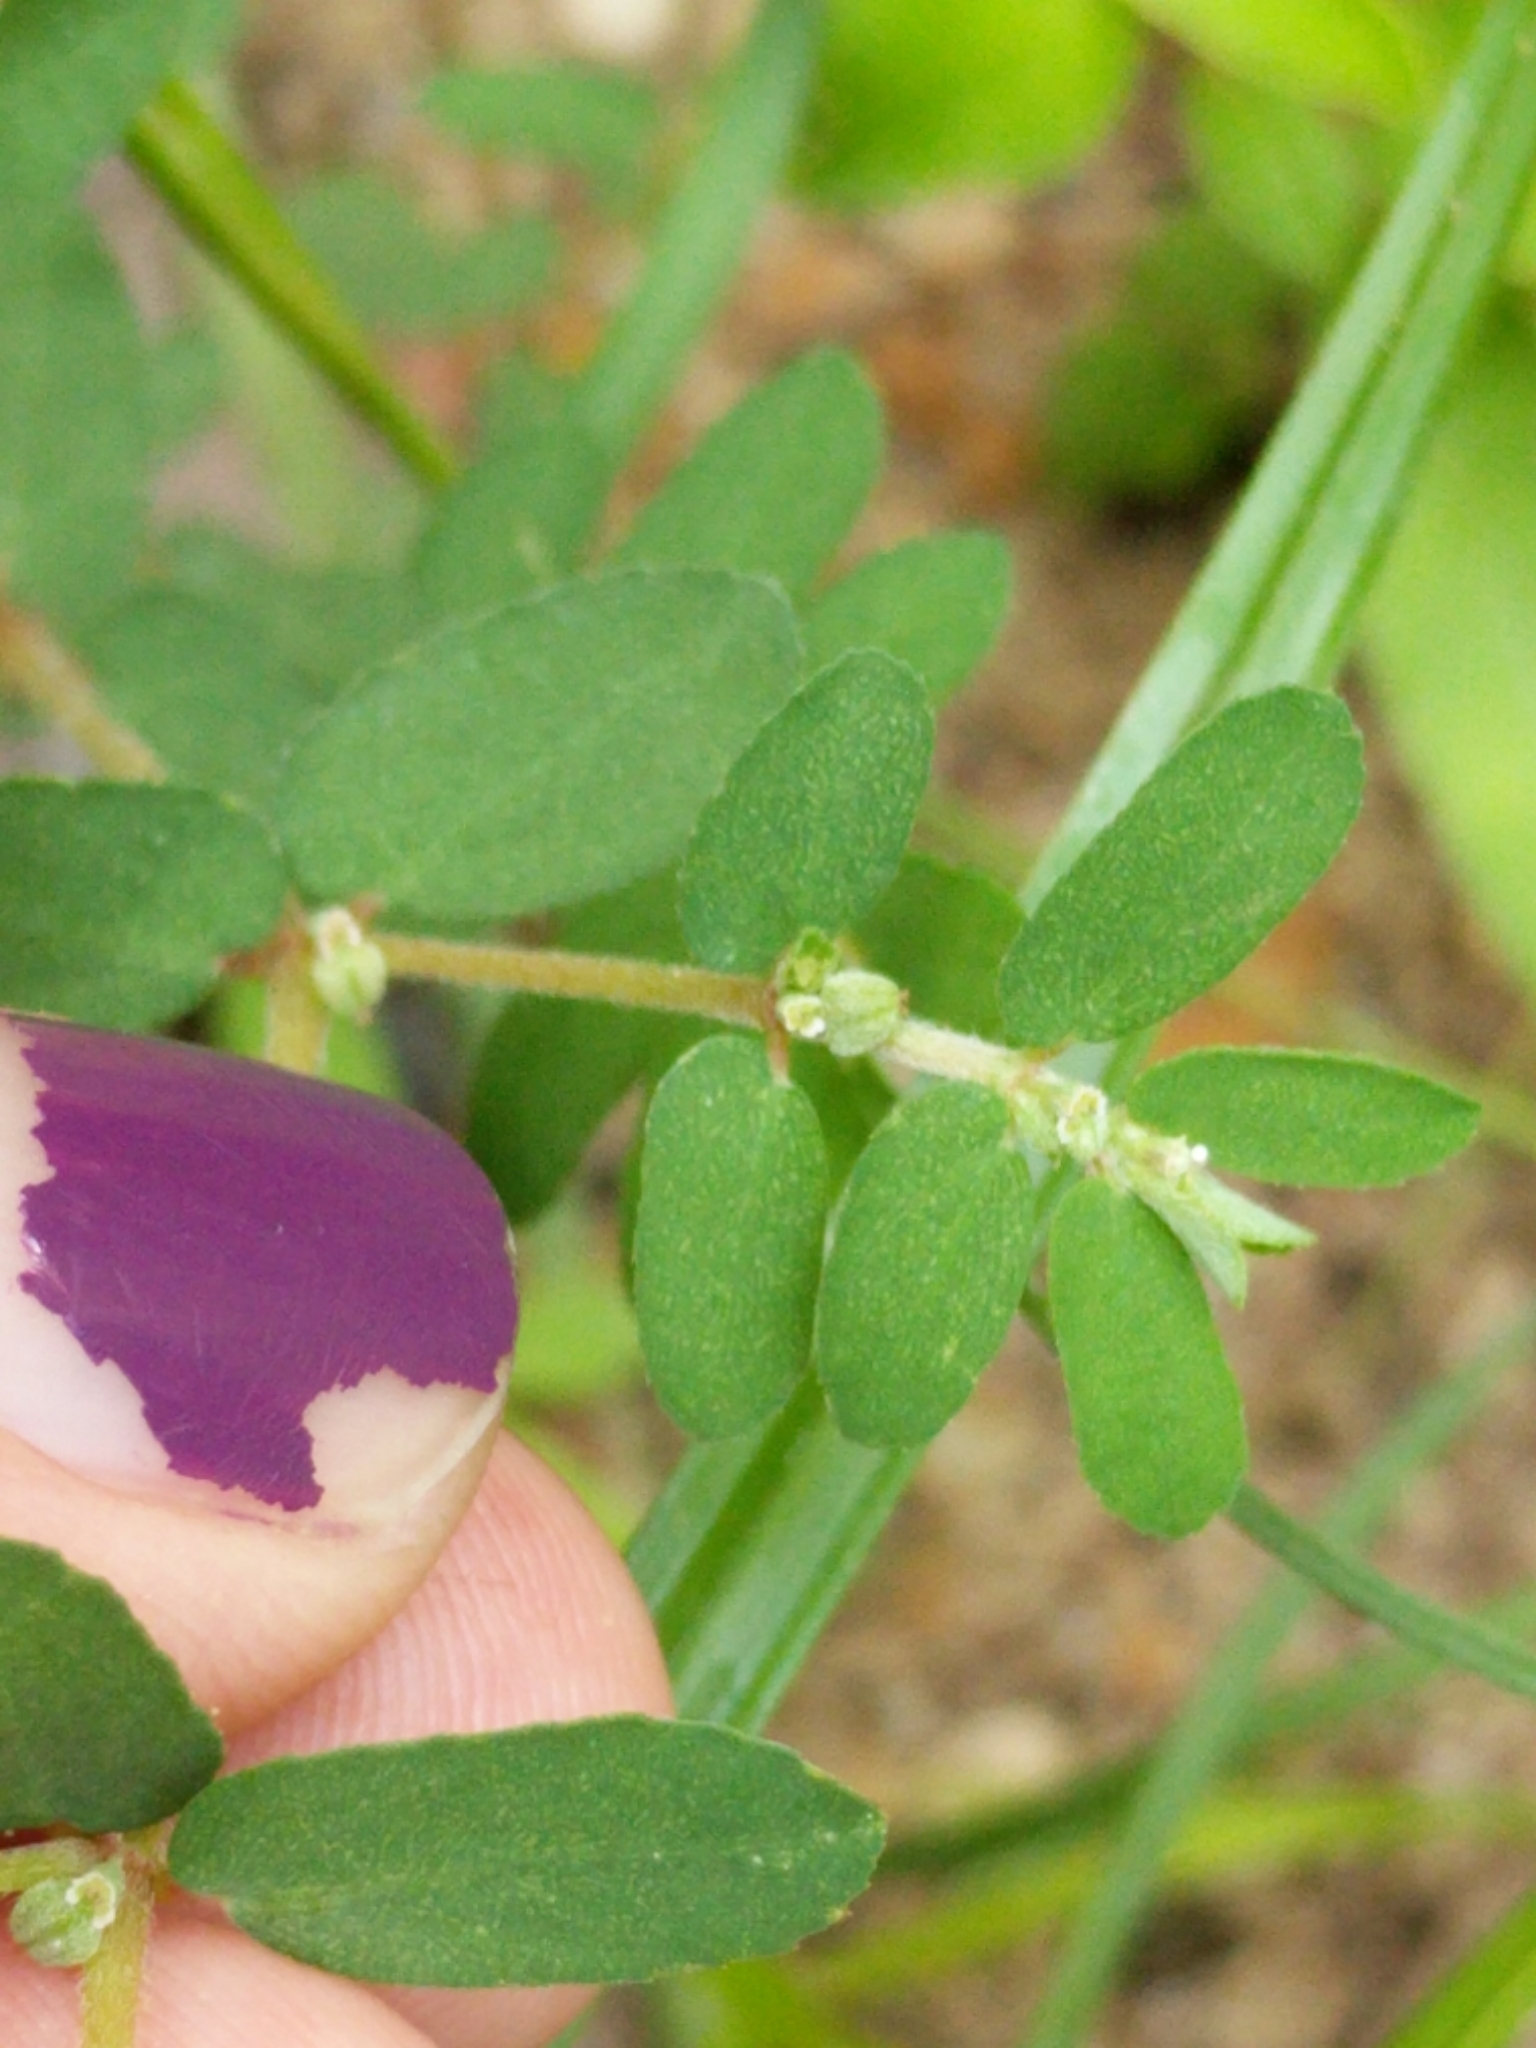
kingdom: Plantae
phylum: Tracheophyta
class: Magnoliopsida
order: Malpighiales
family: Euphorbiaceae
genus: Euphorbia
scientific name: Euphorbia maculata
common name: Spotted spurge
